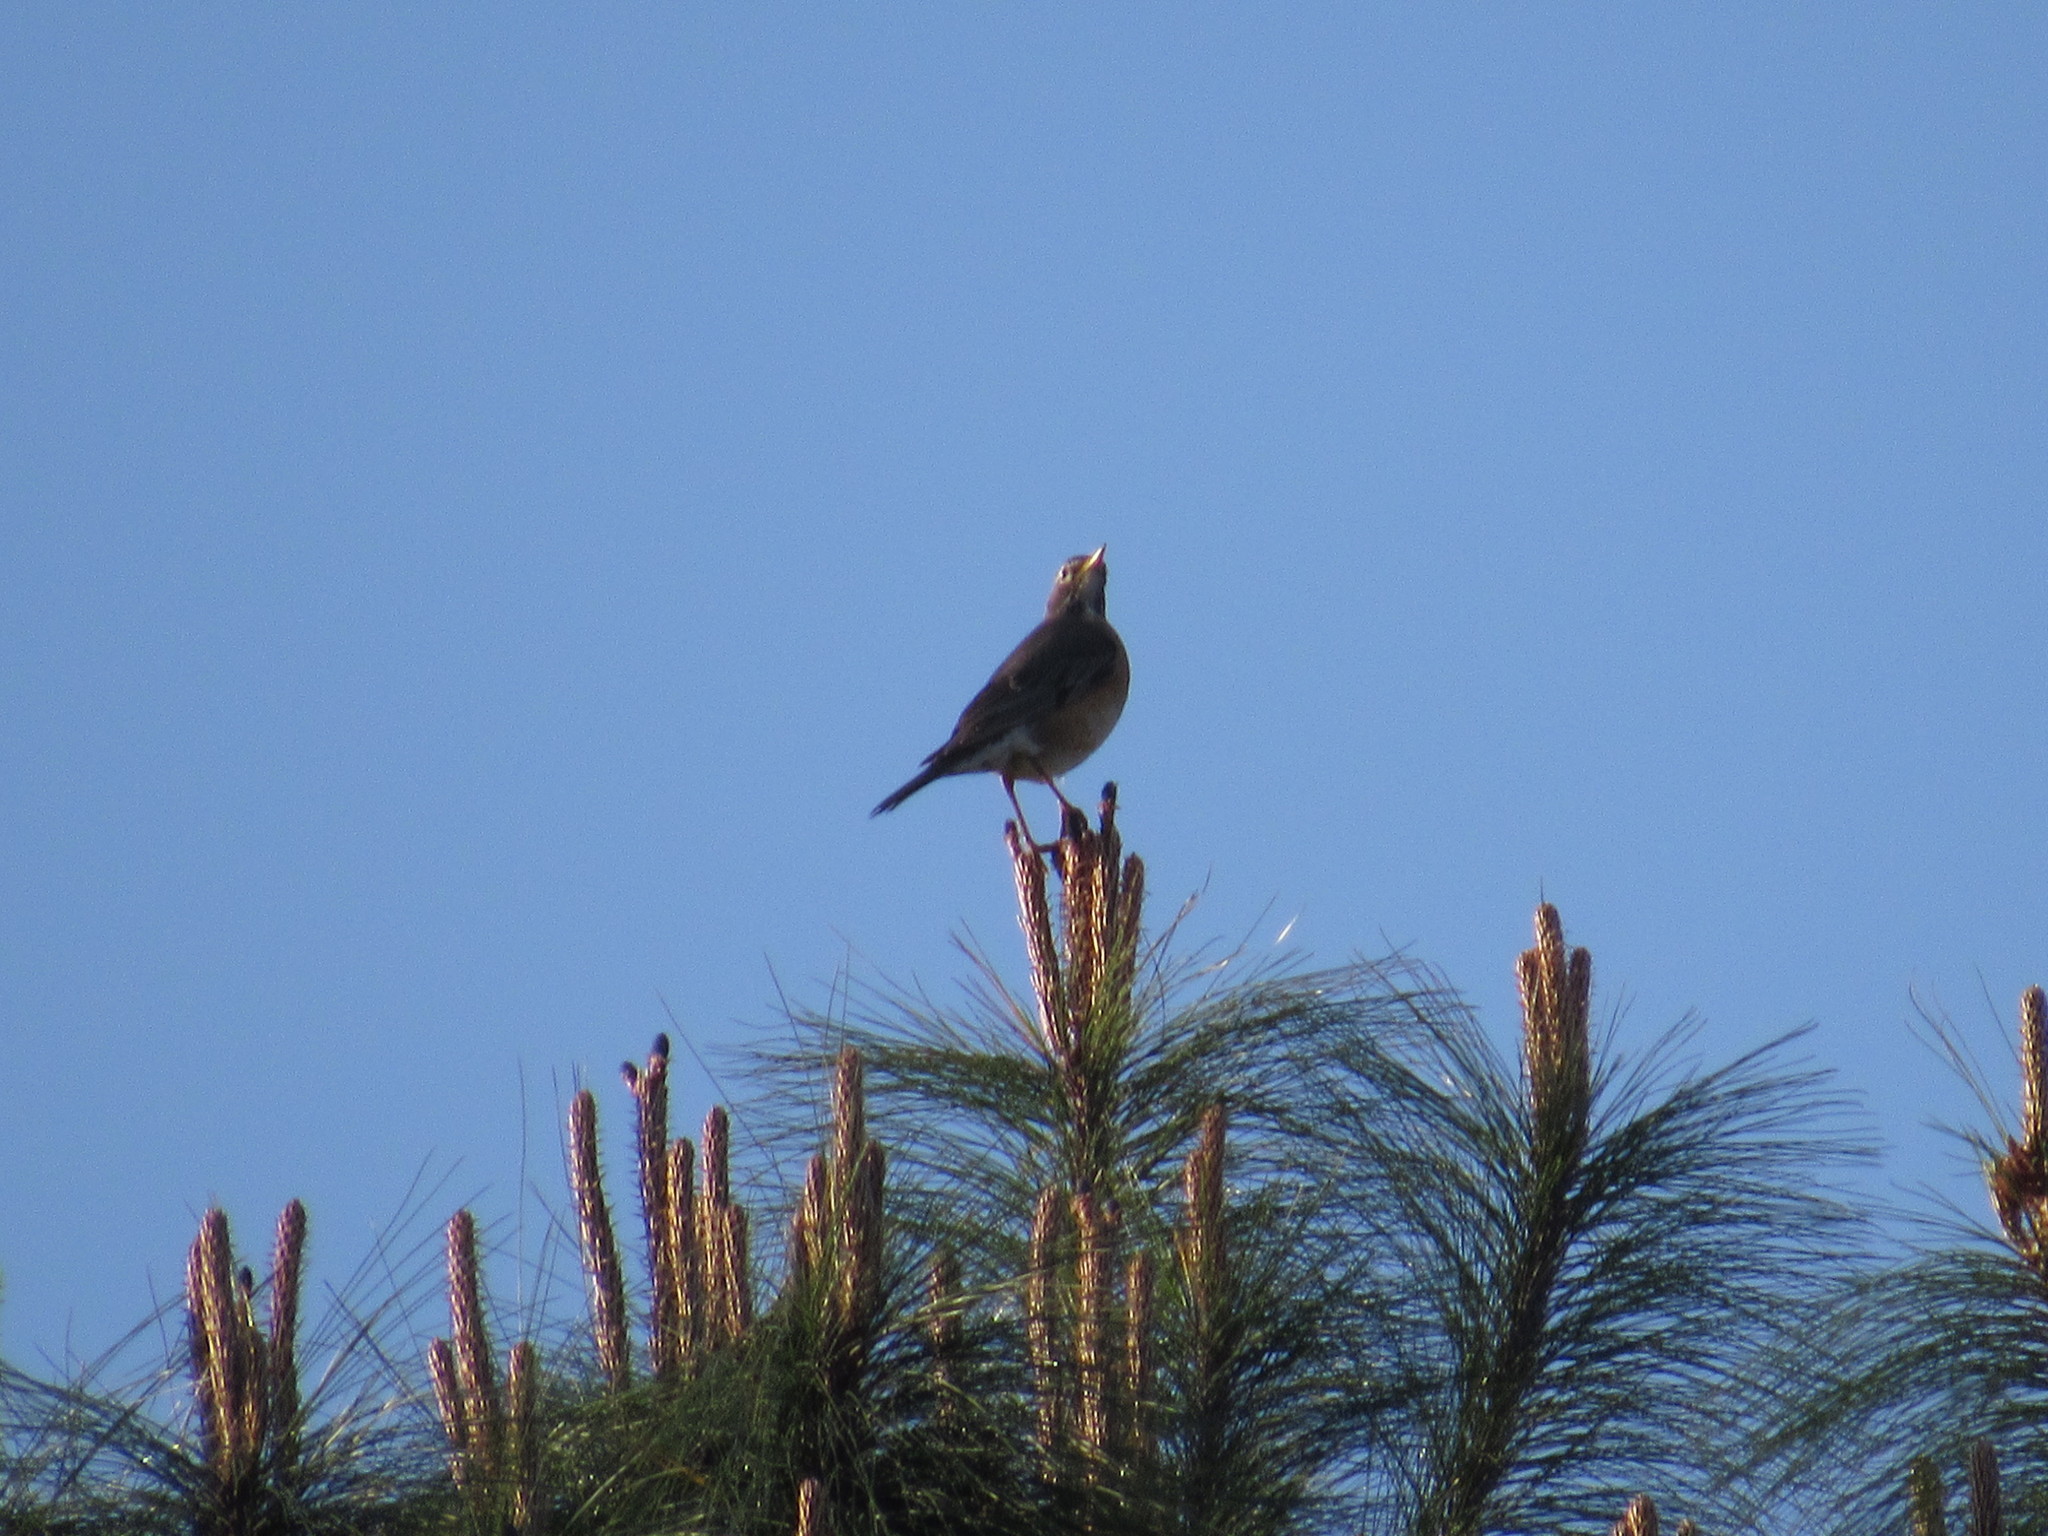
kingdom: Animalia
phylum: Chordata
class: Aves
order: Passeriformes
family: Turdidae
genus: Turdus
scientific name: Turdus migratorius
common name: American robin
